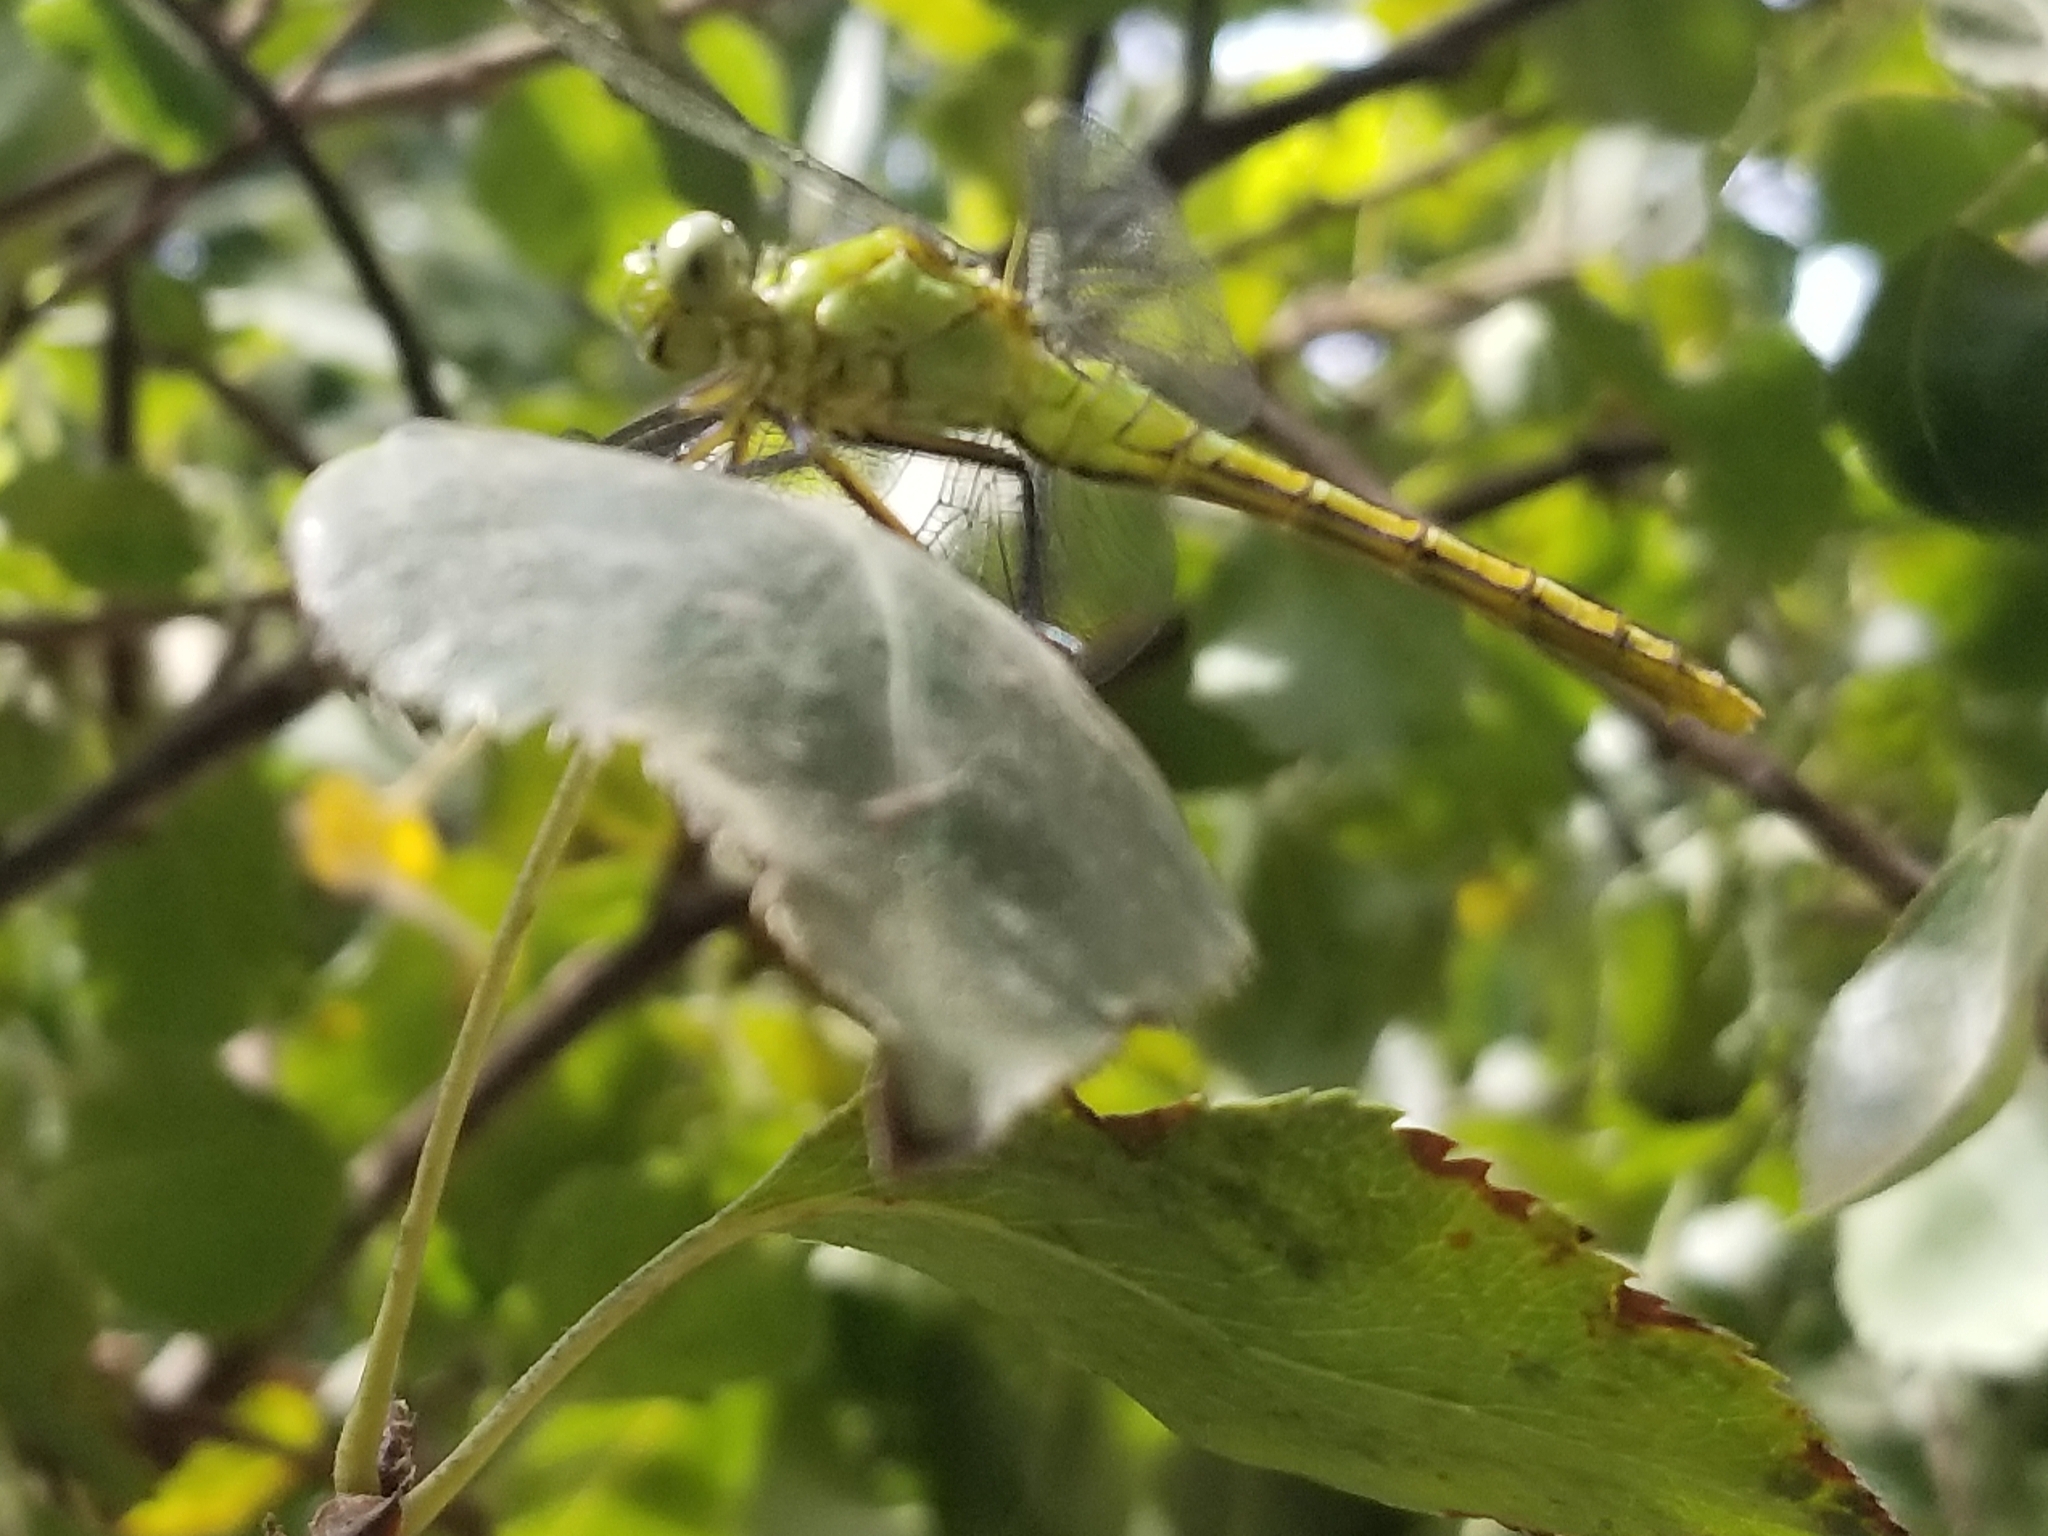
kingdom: Animalia
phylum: Arthropoda
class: Insecta
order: Odonata
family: Libellulidae
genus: Erythemis
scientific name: Erythemis collocata
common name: Western pondhawk
